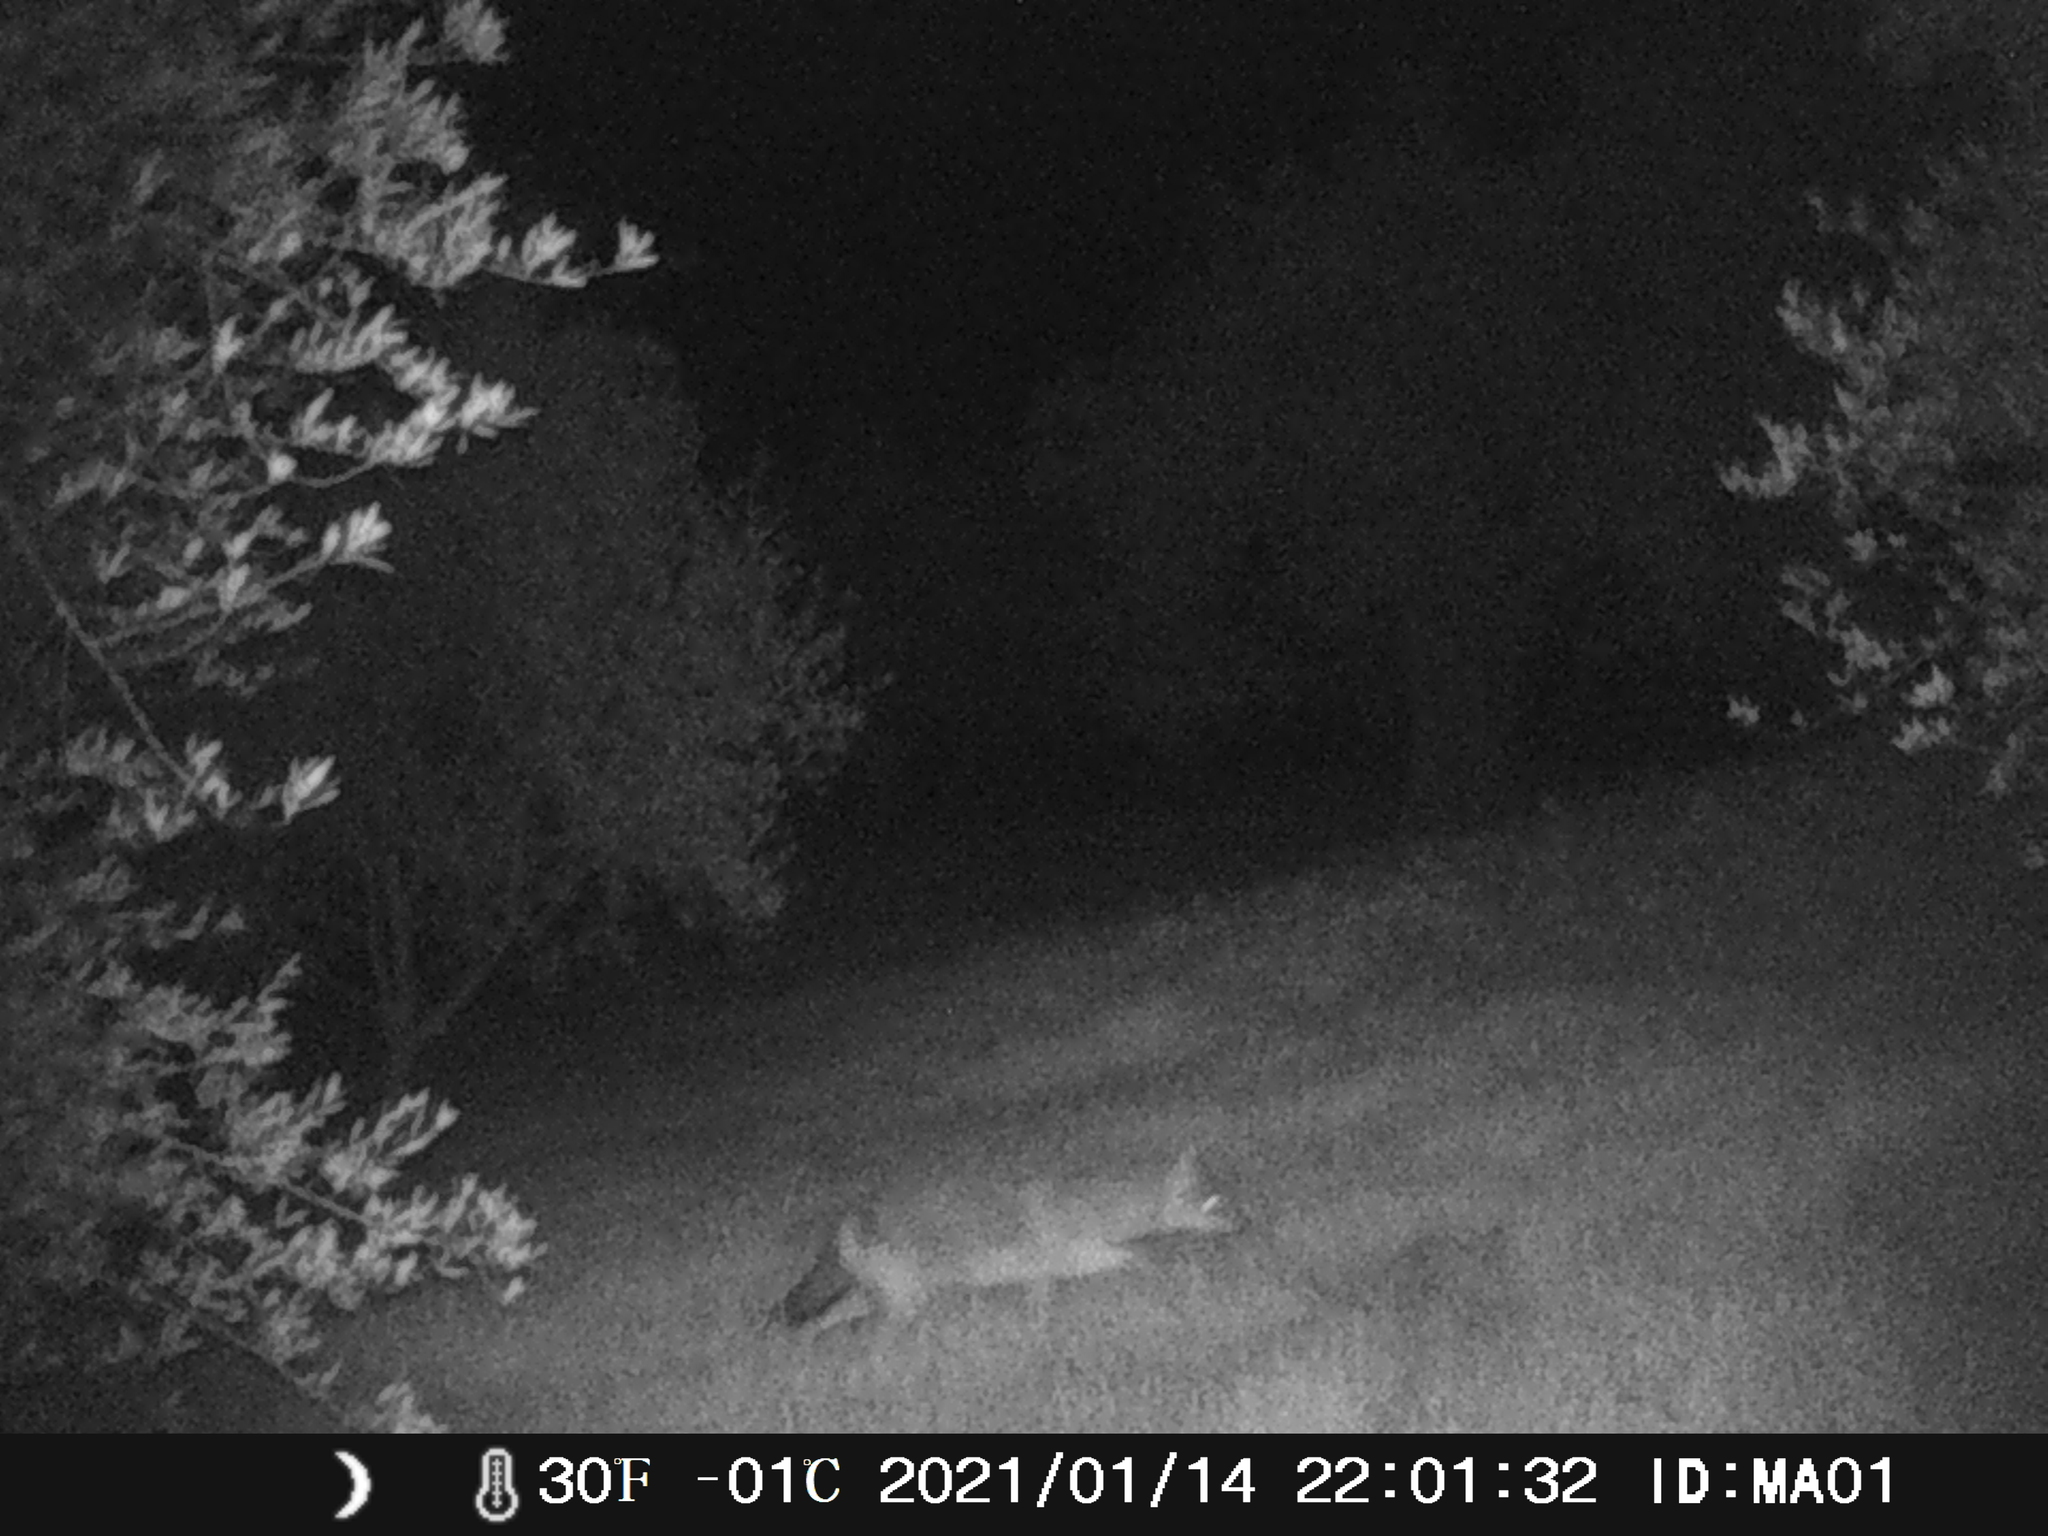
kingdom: Animalia
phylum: Chordata
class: Mammalia
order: Carnivora
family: Canidae
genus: Canis
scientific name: Canis aureus
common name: Golden jackal
